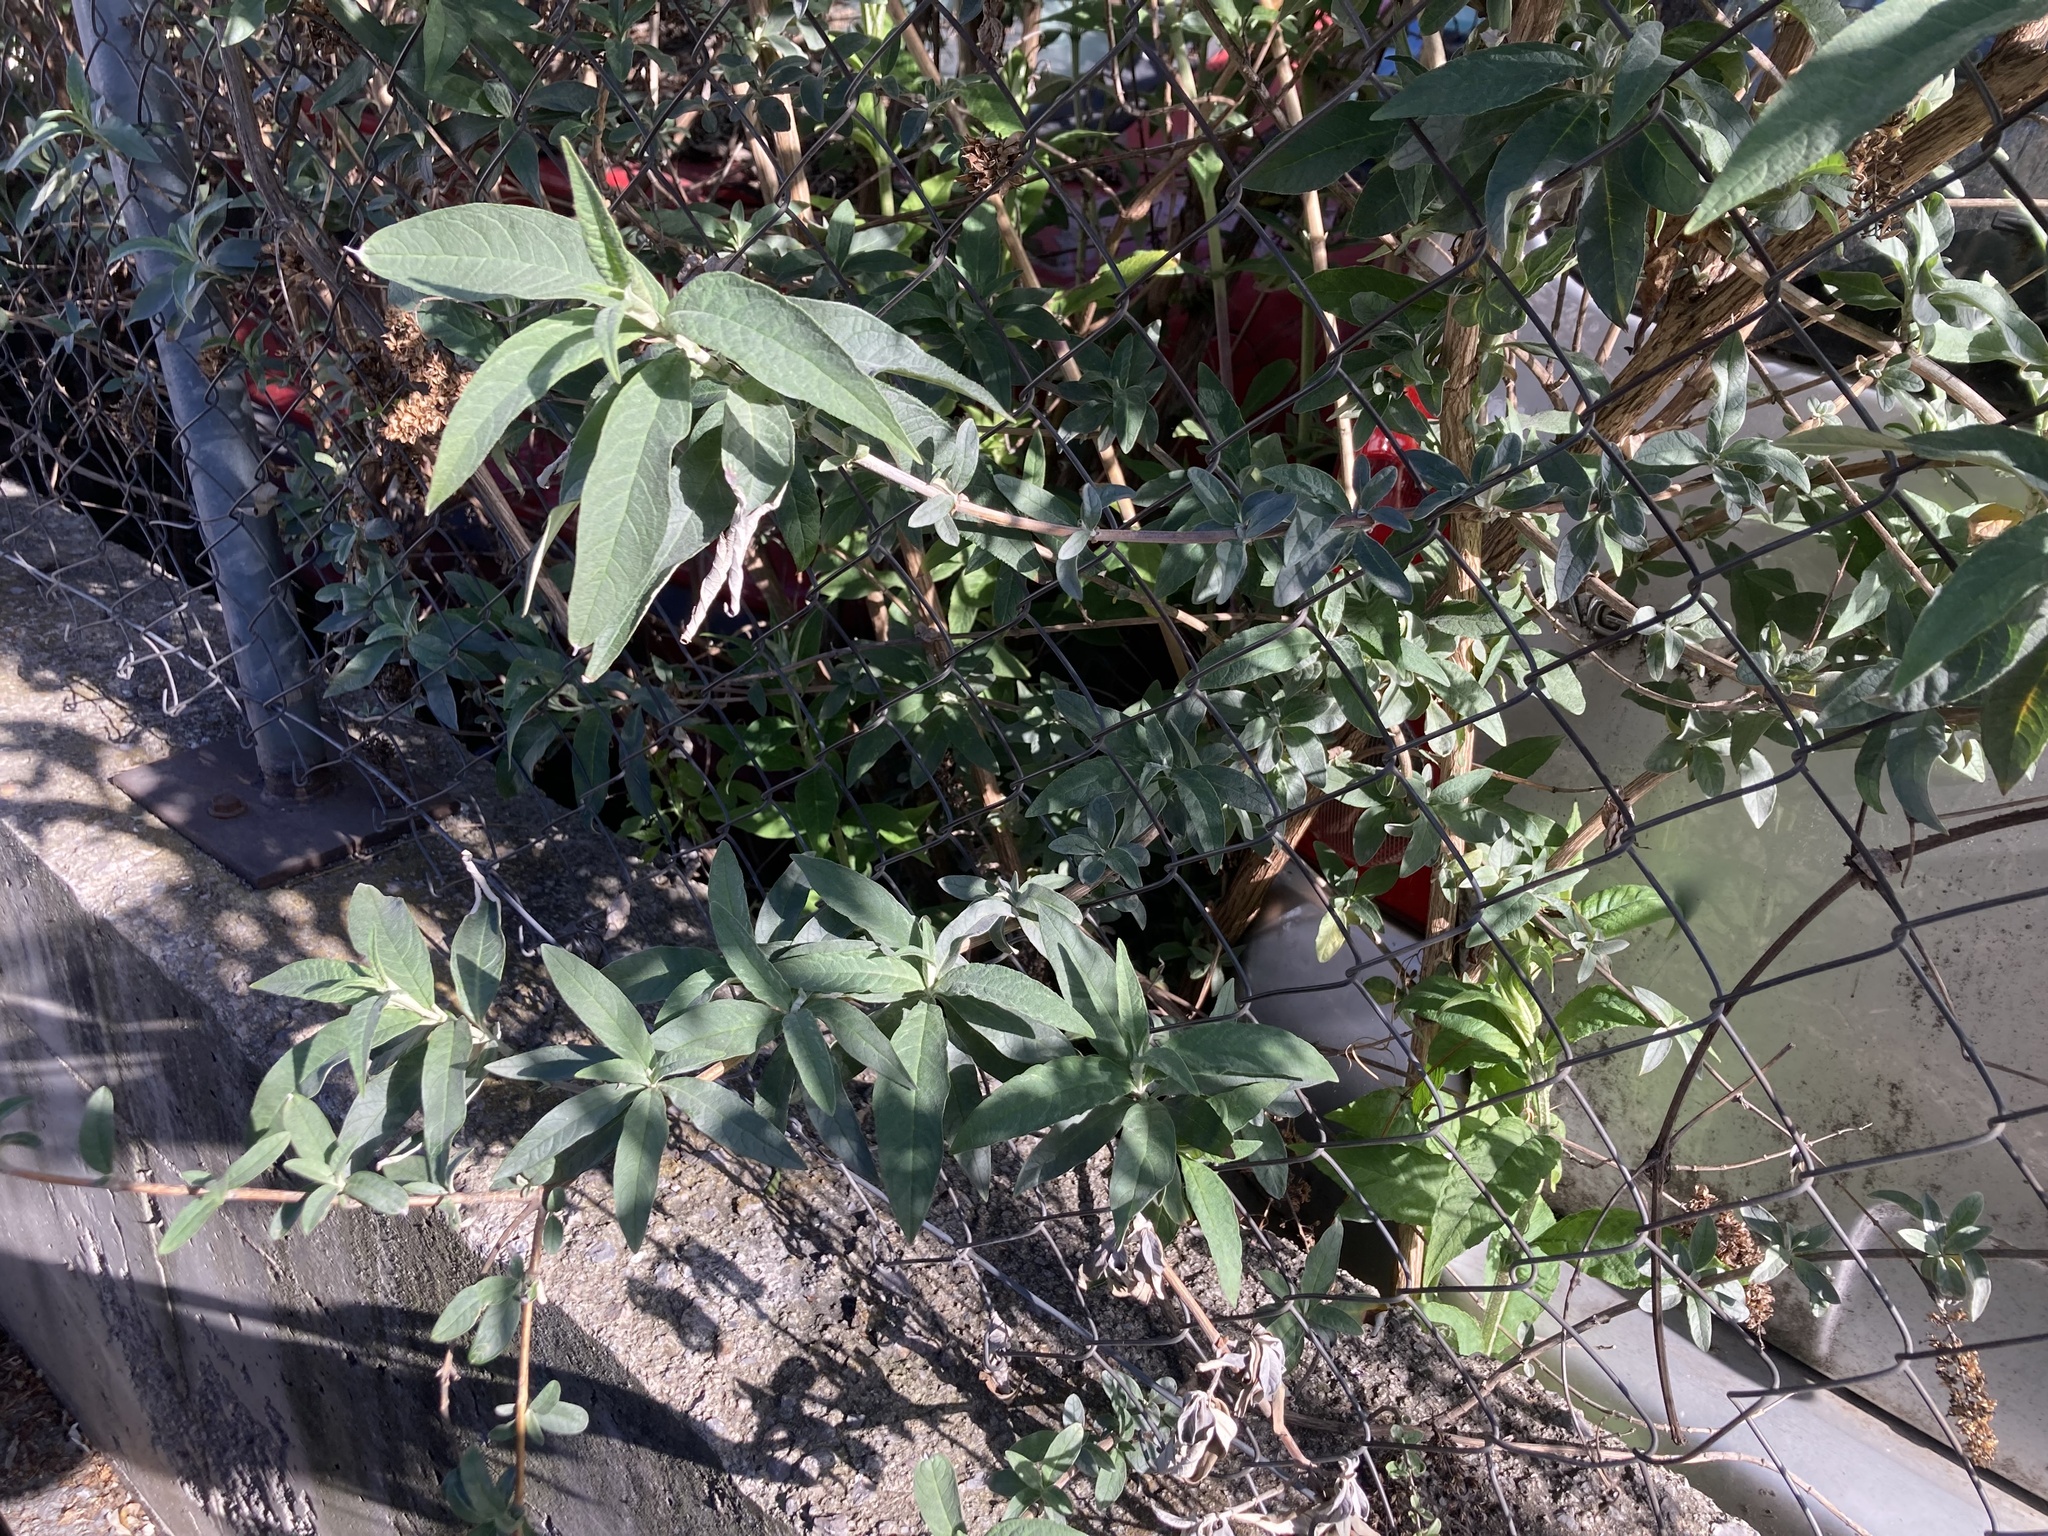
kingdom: Plantae
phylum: Tracheophyta
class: Magnoliopsida
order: Lamiales
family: Scrophulariaceae
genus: Buddleja
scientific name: Buddleja davidii
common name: Butterfly-bush
